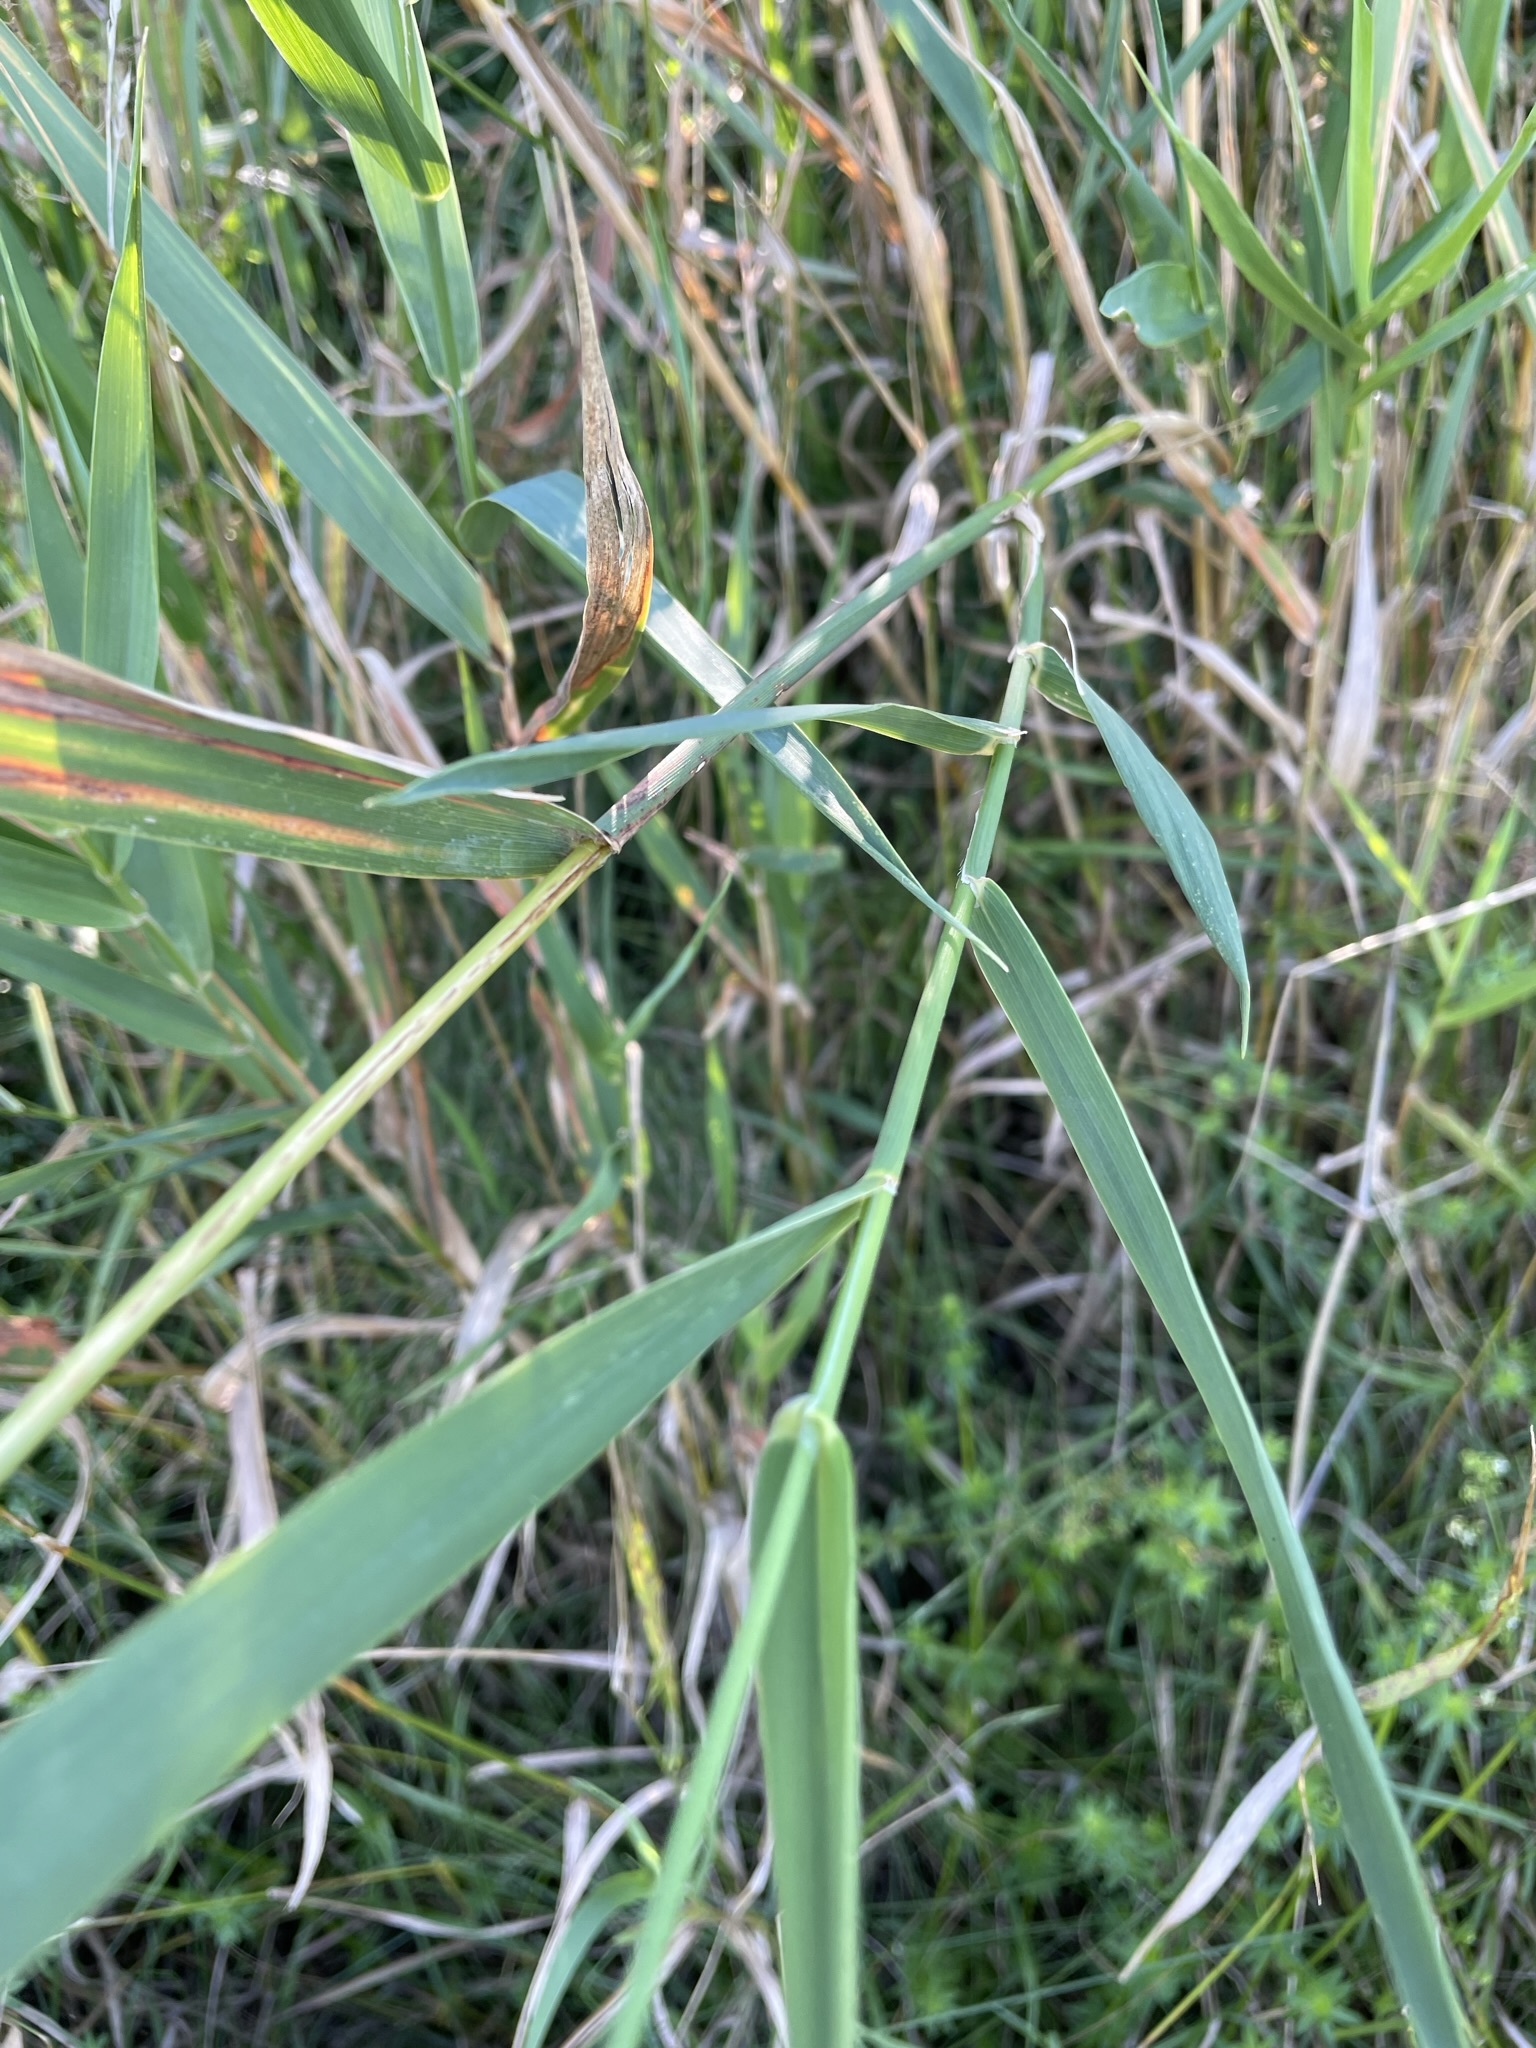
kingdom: Plantae
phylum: Tracheophyta
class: Liliopsida
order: Poales
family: Poaceae
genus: Phalaris
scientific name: Phalaris arundinacea
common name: Reed canary-grass
